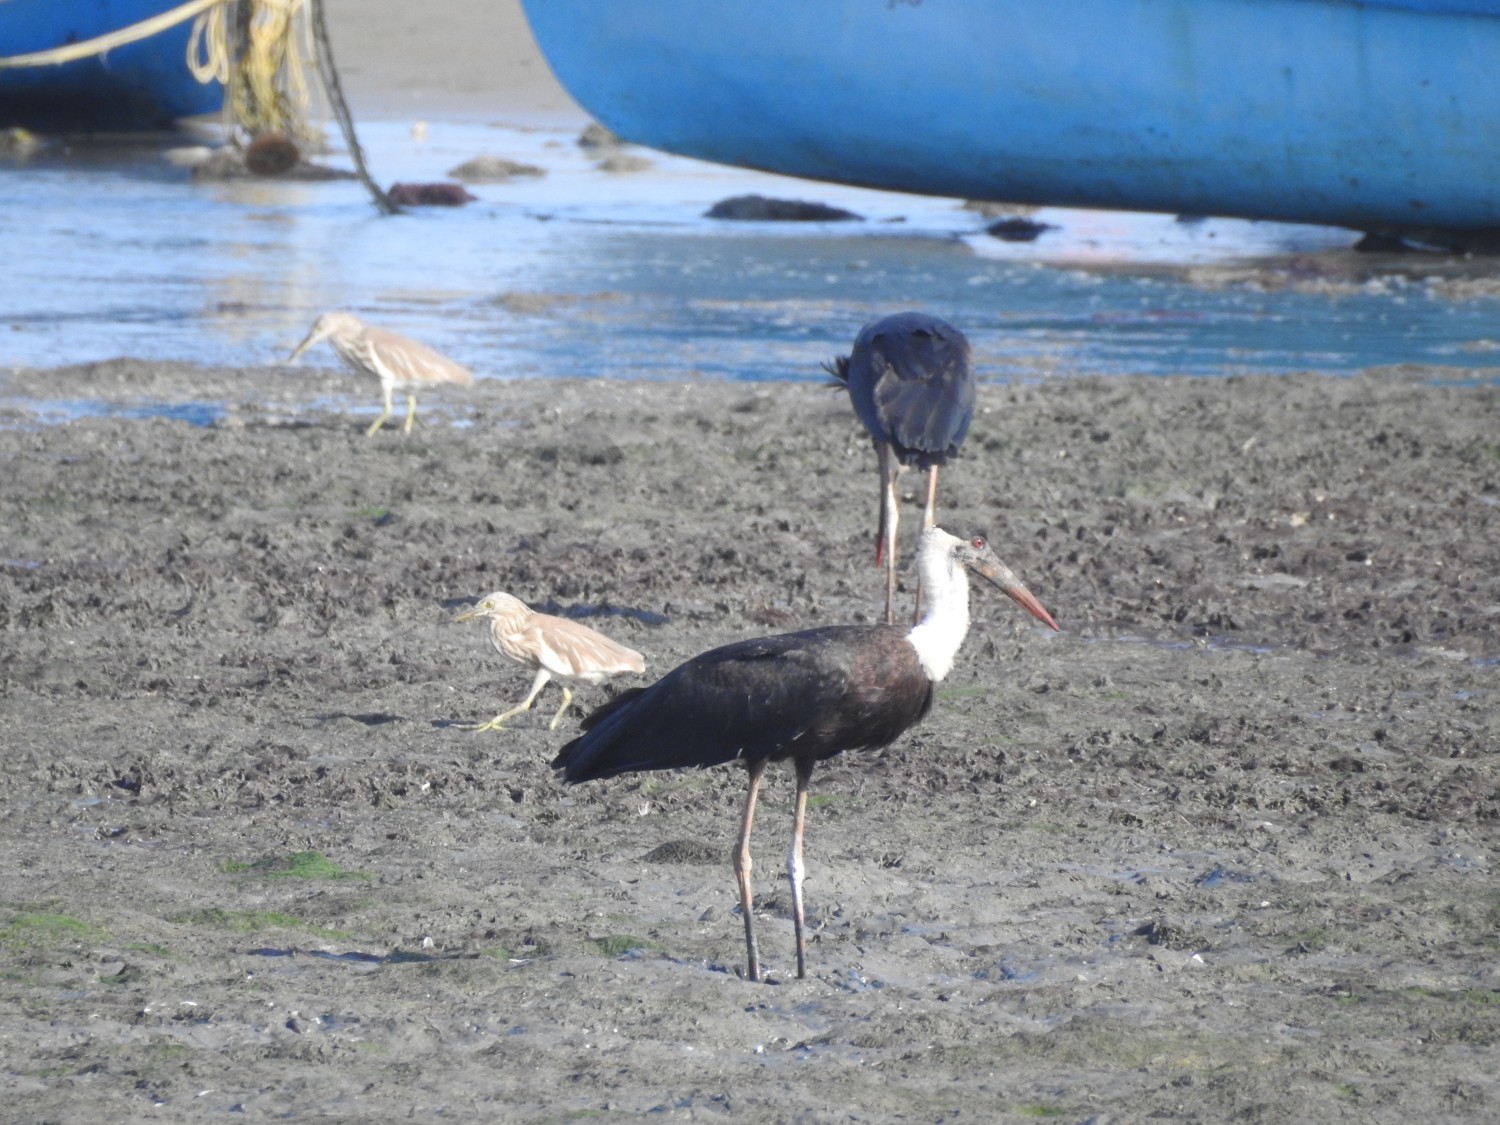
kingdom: Animalia
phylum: Chordata
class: Aves
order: Ciconiiformes
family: Ciconiidae
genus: Ciconia
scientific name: Ciconia episcopus
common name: Woolly-necked stork
